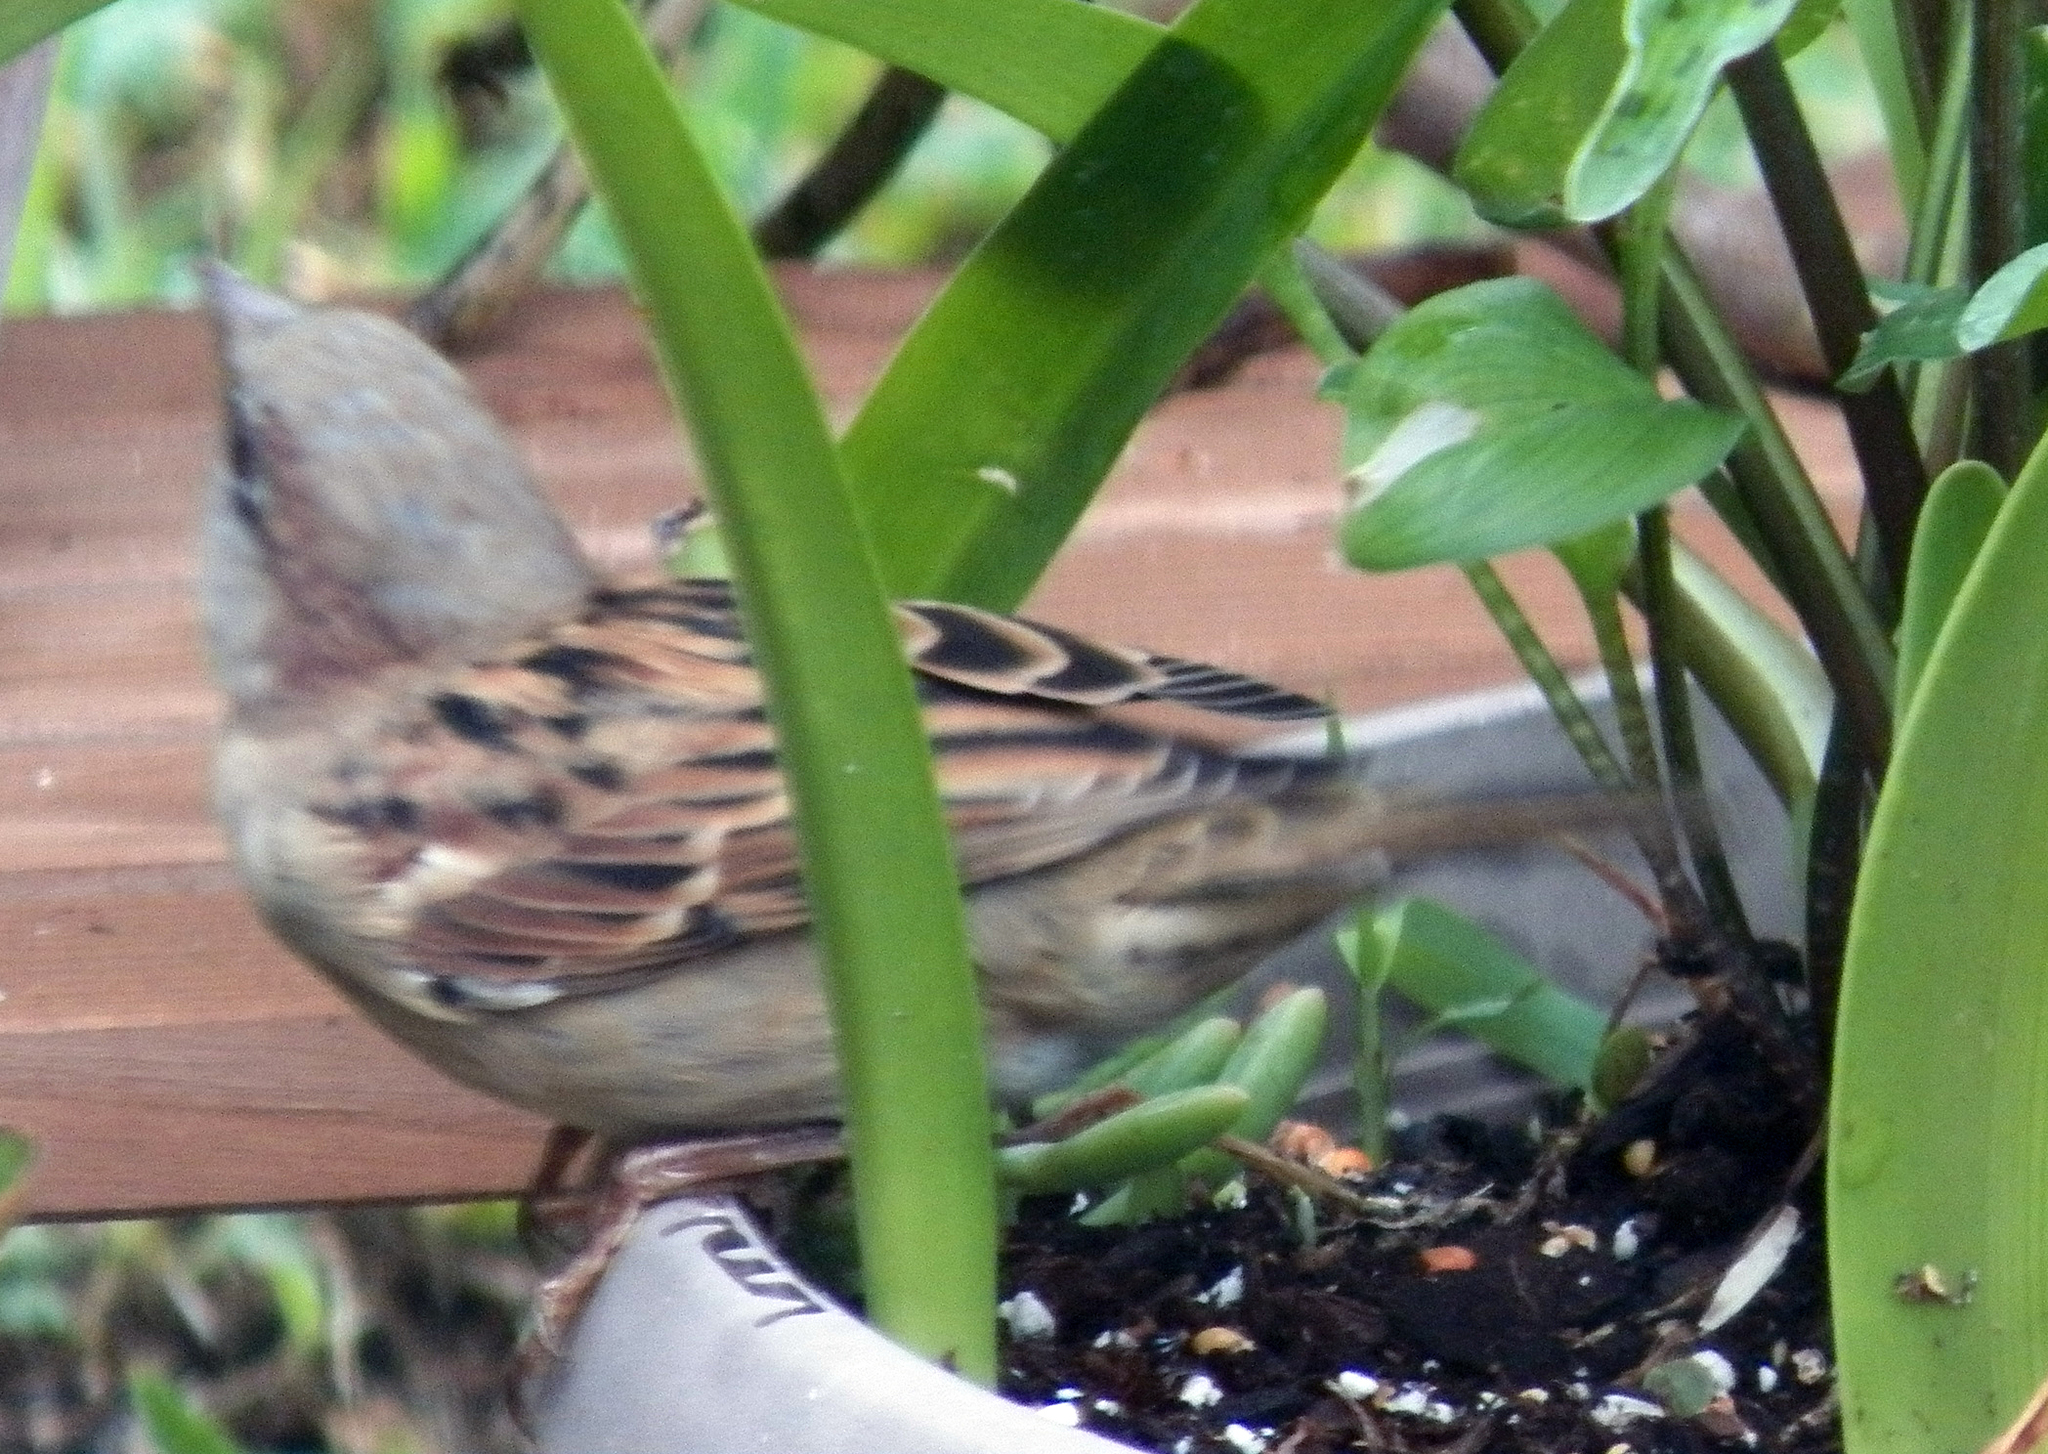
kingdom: Animalia
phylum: Chordata
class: Aves
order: Passeriformes
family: Passeridae
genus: Passer
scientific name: Passer domesticus
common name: House sparrow
